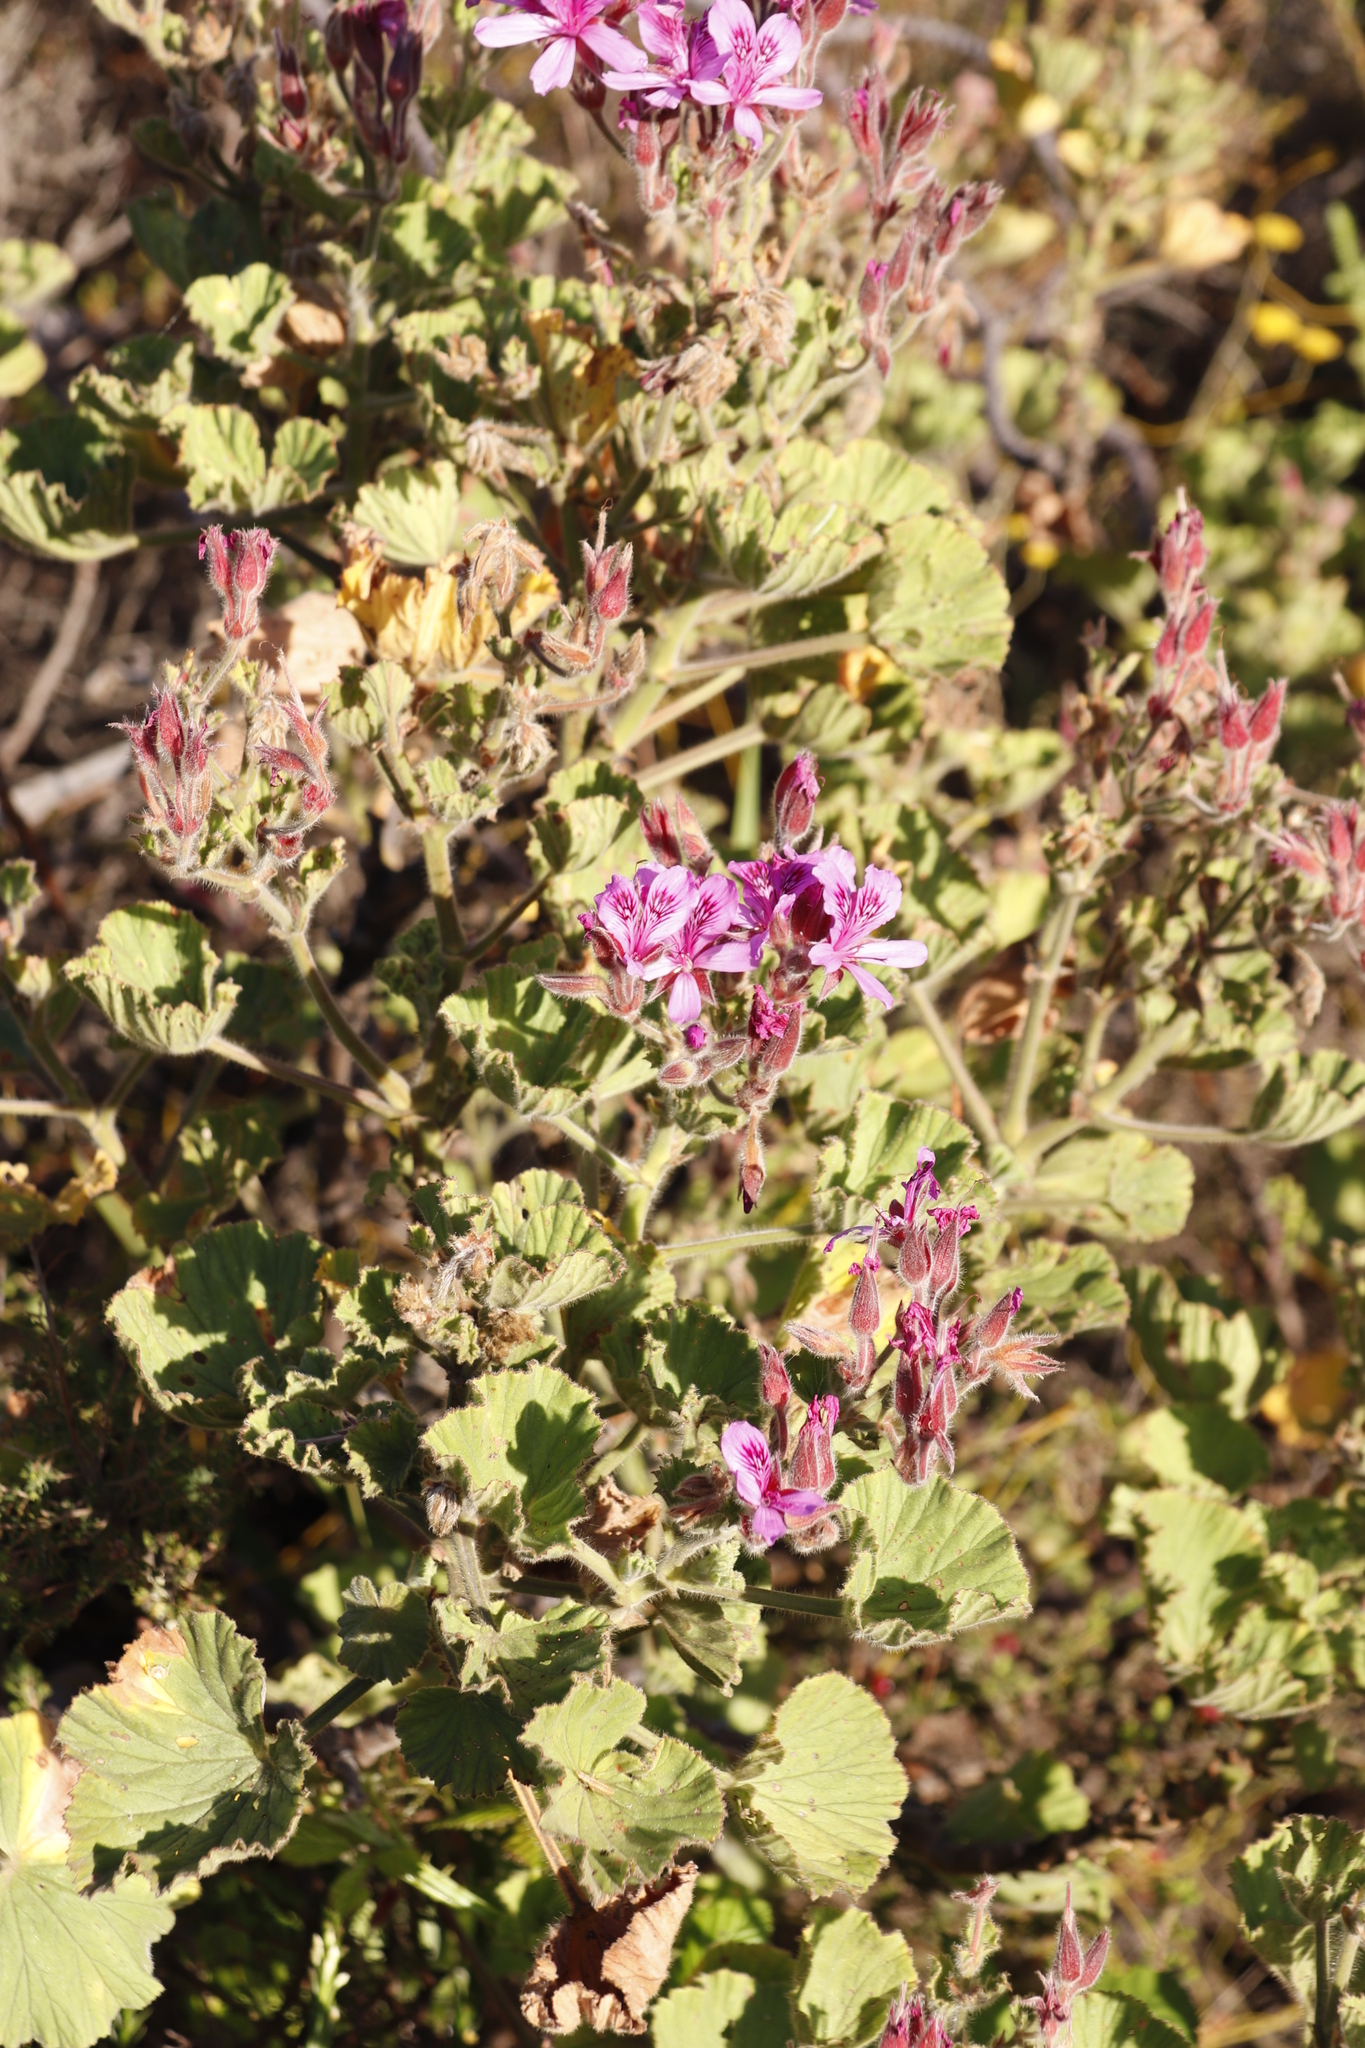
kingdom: Plantae
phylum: Tracheophyta
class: Magnoliopsida
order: Geraniales
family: Geraniaceae
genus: Pelargonium
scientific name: Pelargonium cucullatum
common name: Tree pelargonium
